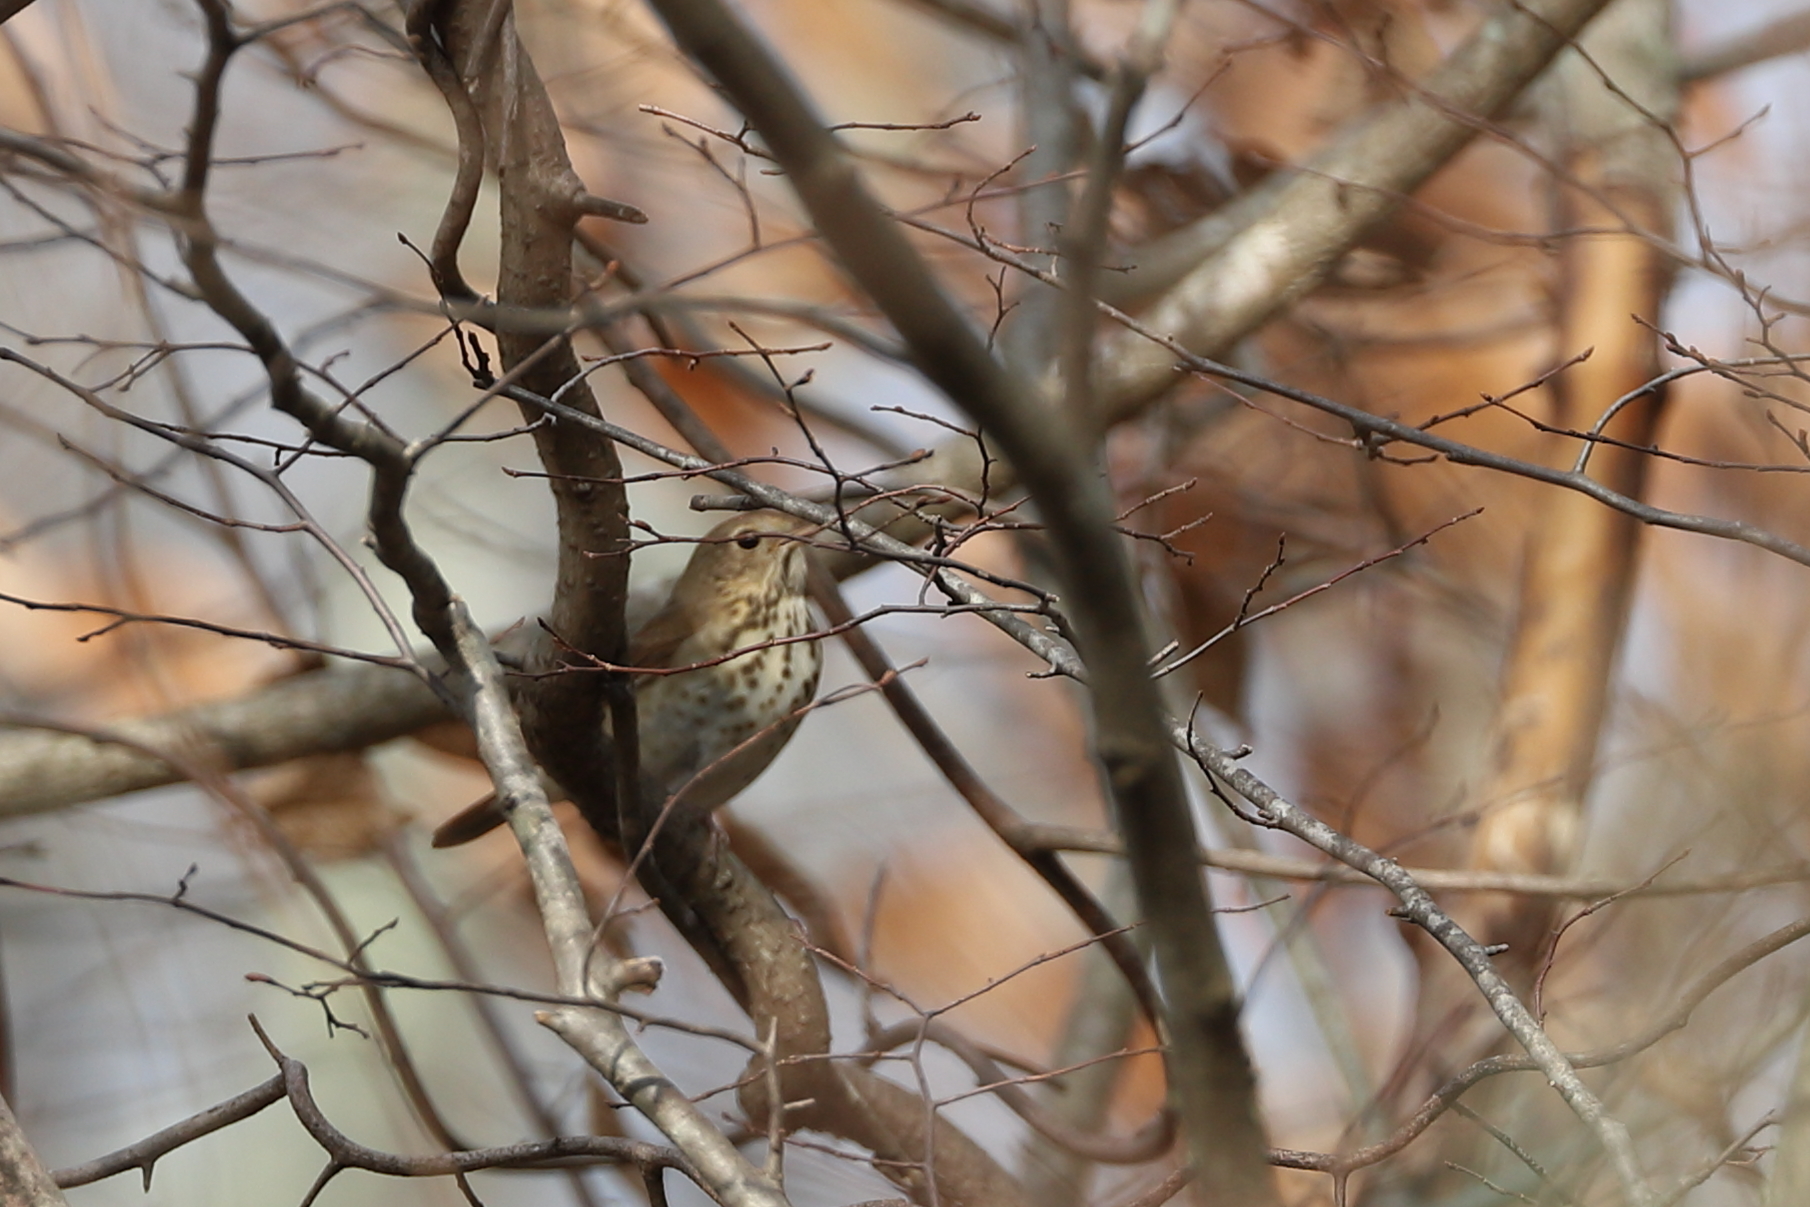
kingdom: Animalia
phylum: Chordata
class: Aves
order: Passeriformes
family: Turdidae
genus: Catharus
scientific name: Catharus guttatus
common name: Hermit thrush
